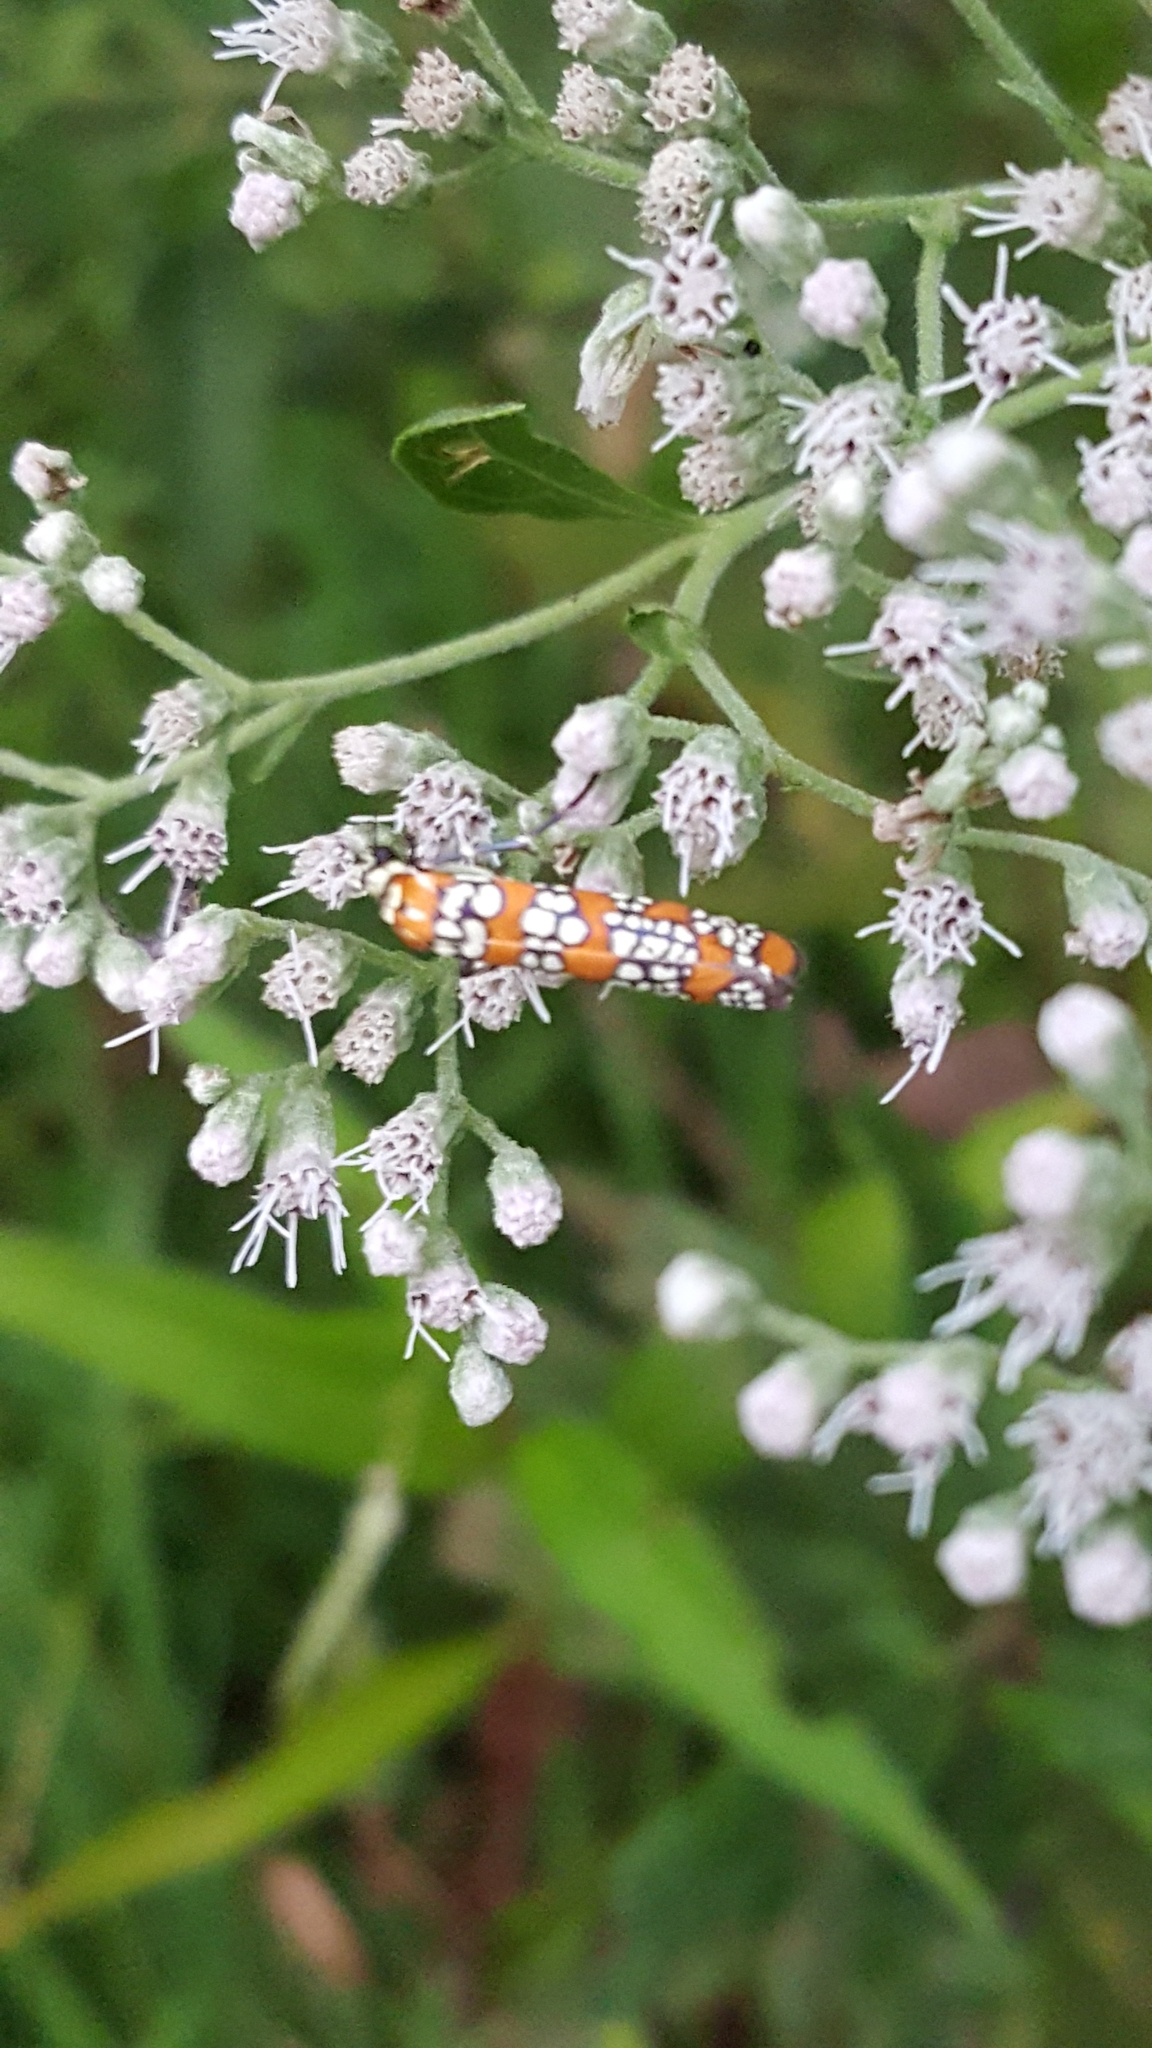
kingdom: Animalia
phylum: Arthropoda
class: Insecta
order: Lepidoptera
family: Attevidae
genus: Atteva
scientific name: Atteva punctella
